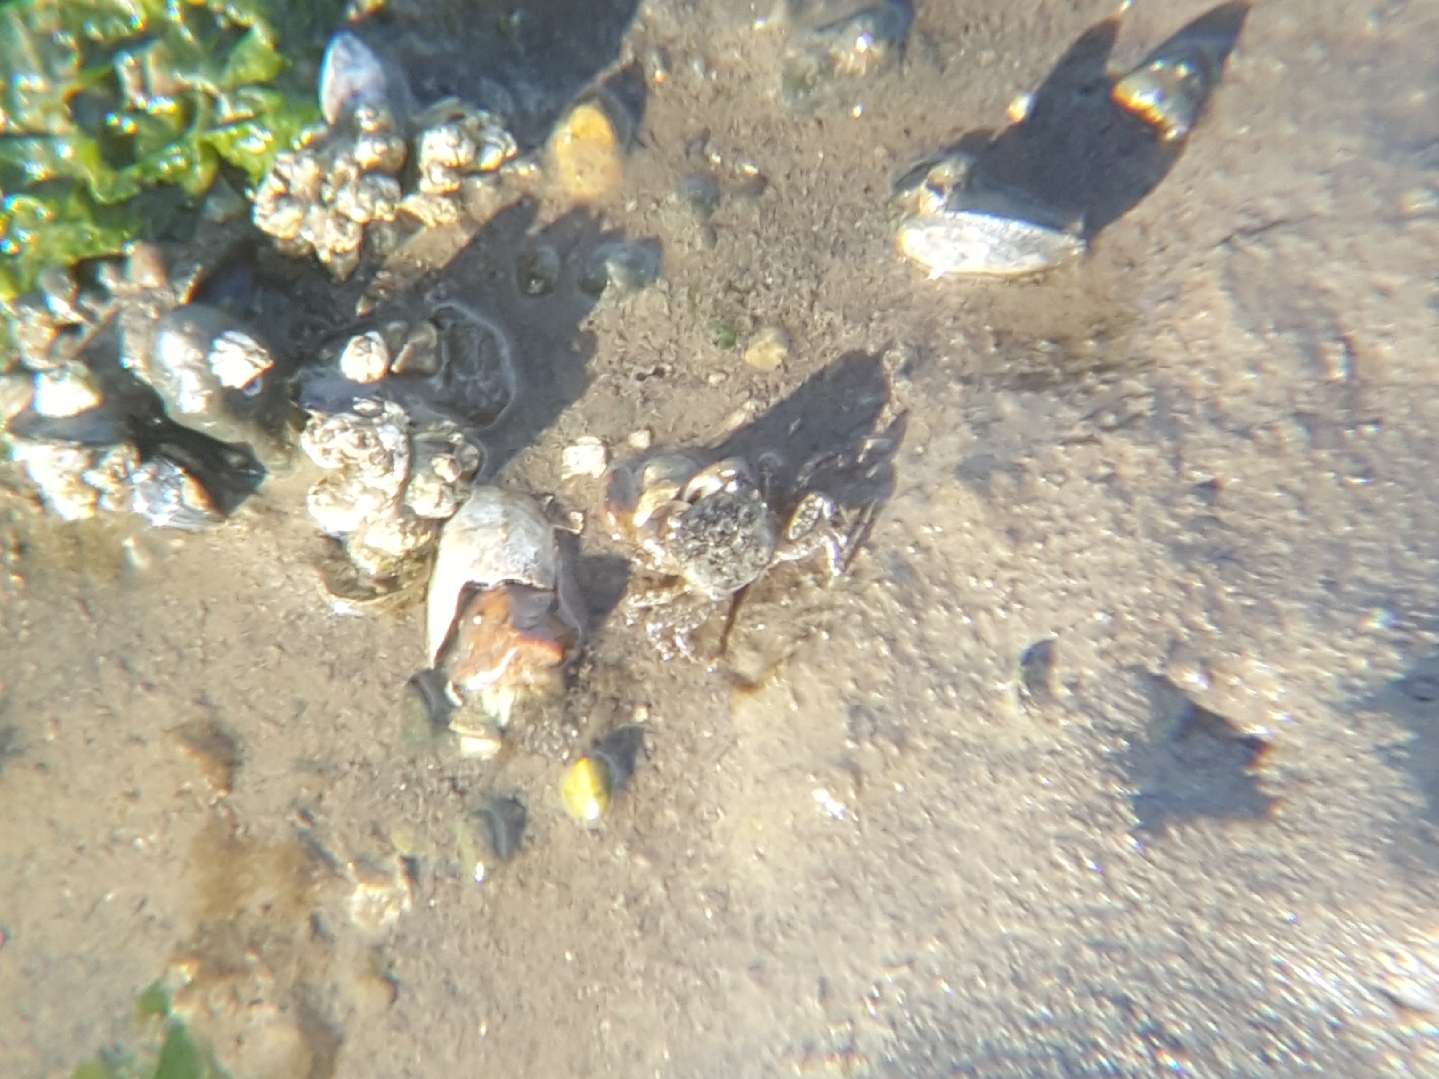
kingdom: Animalia
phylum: Arthropoda
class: Malacostraca
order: Decapoda
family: Varunidae
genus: Hemigrapsus
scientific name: Hemigrapsus oregonensis
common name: Yellow shore crab
